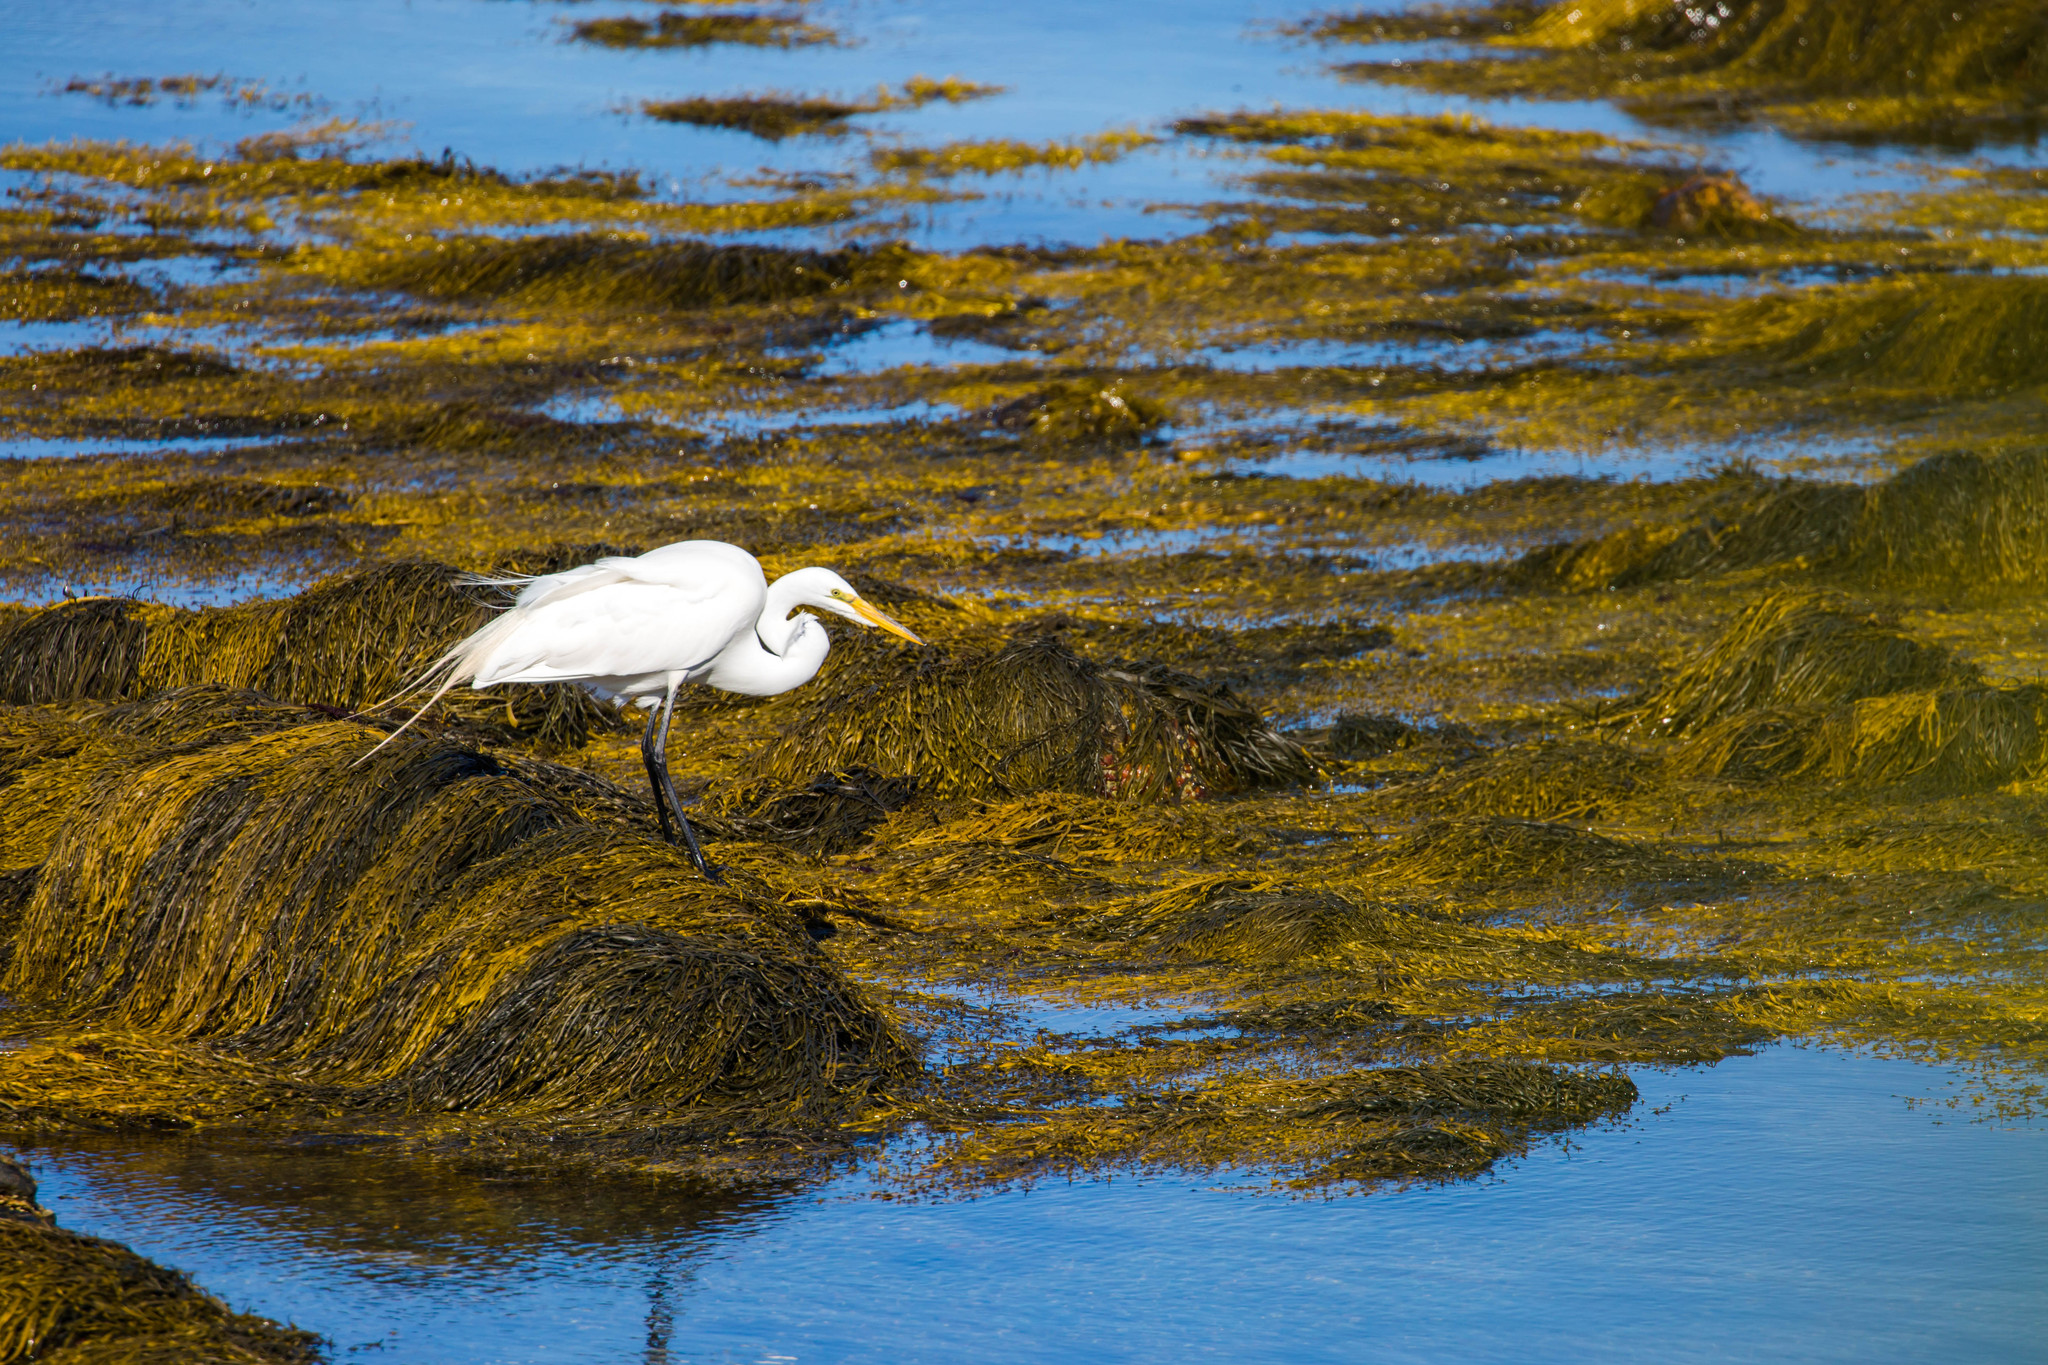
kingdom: Animalia
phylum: Chordata
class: Aves
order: Pelecaniformes
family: Ardeidae
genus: Ardea
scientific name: Ardea alba
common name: Great egret
